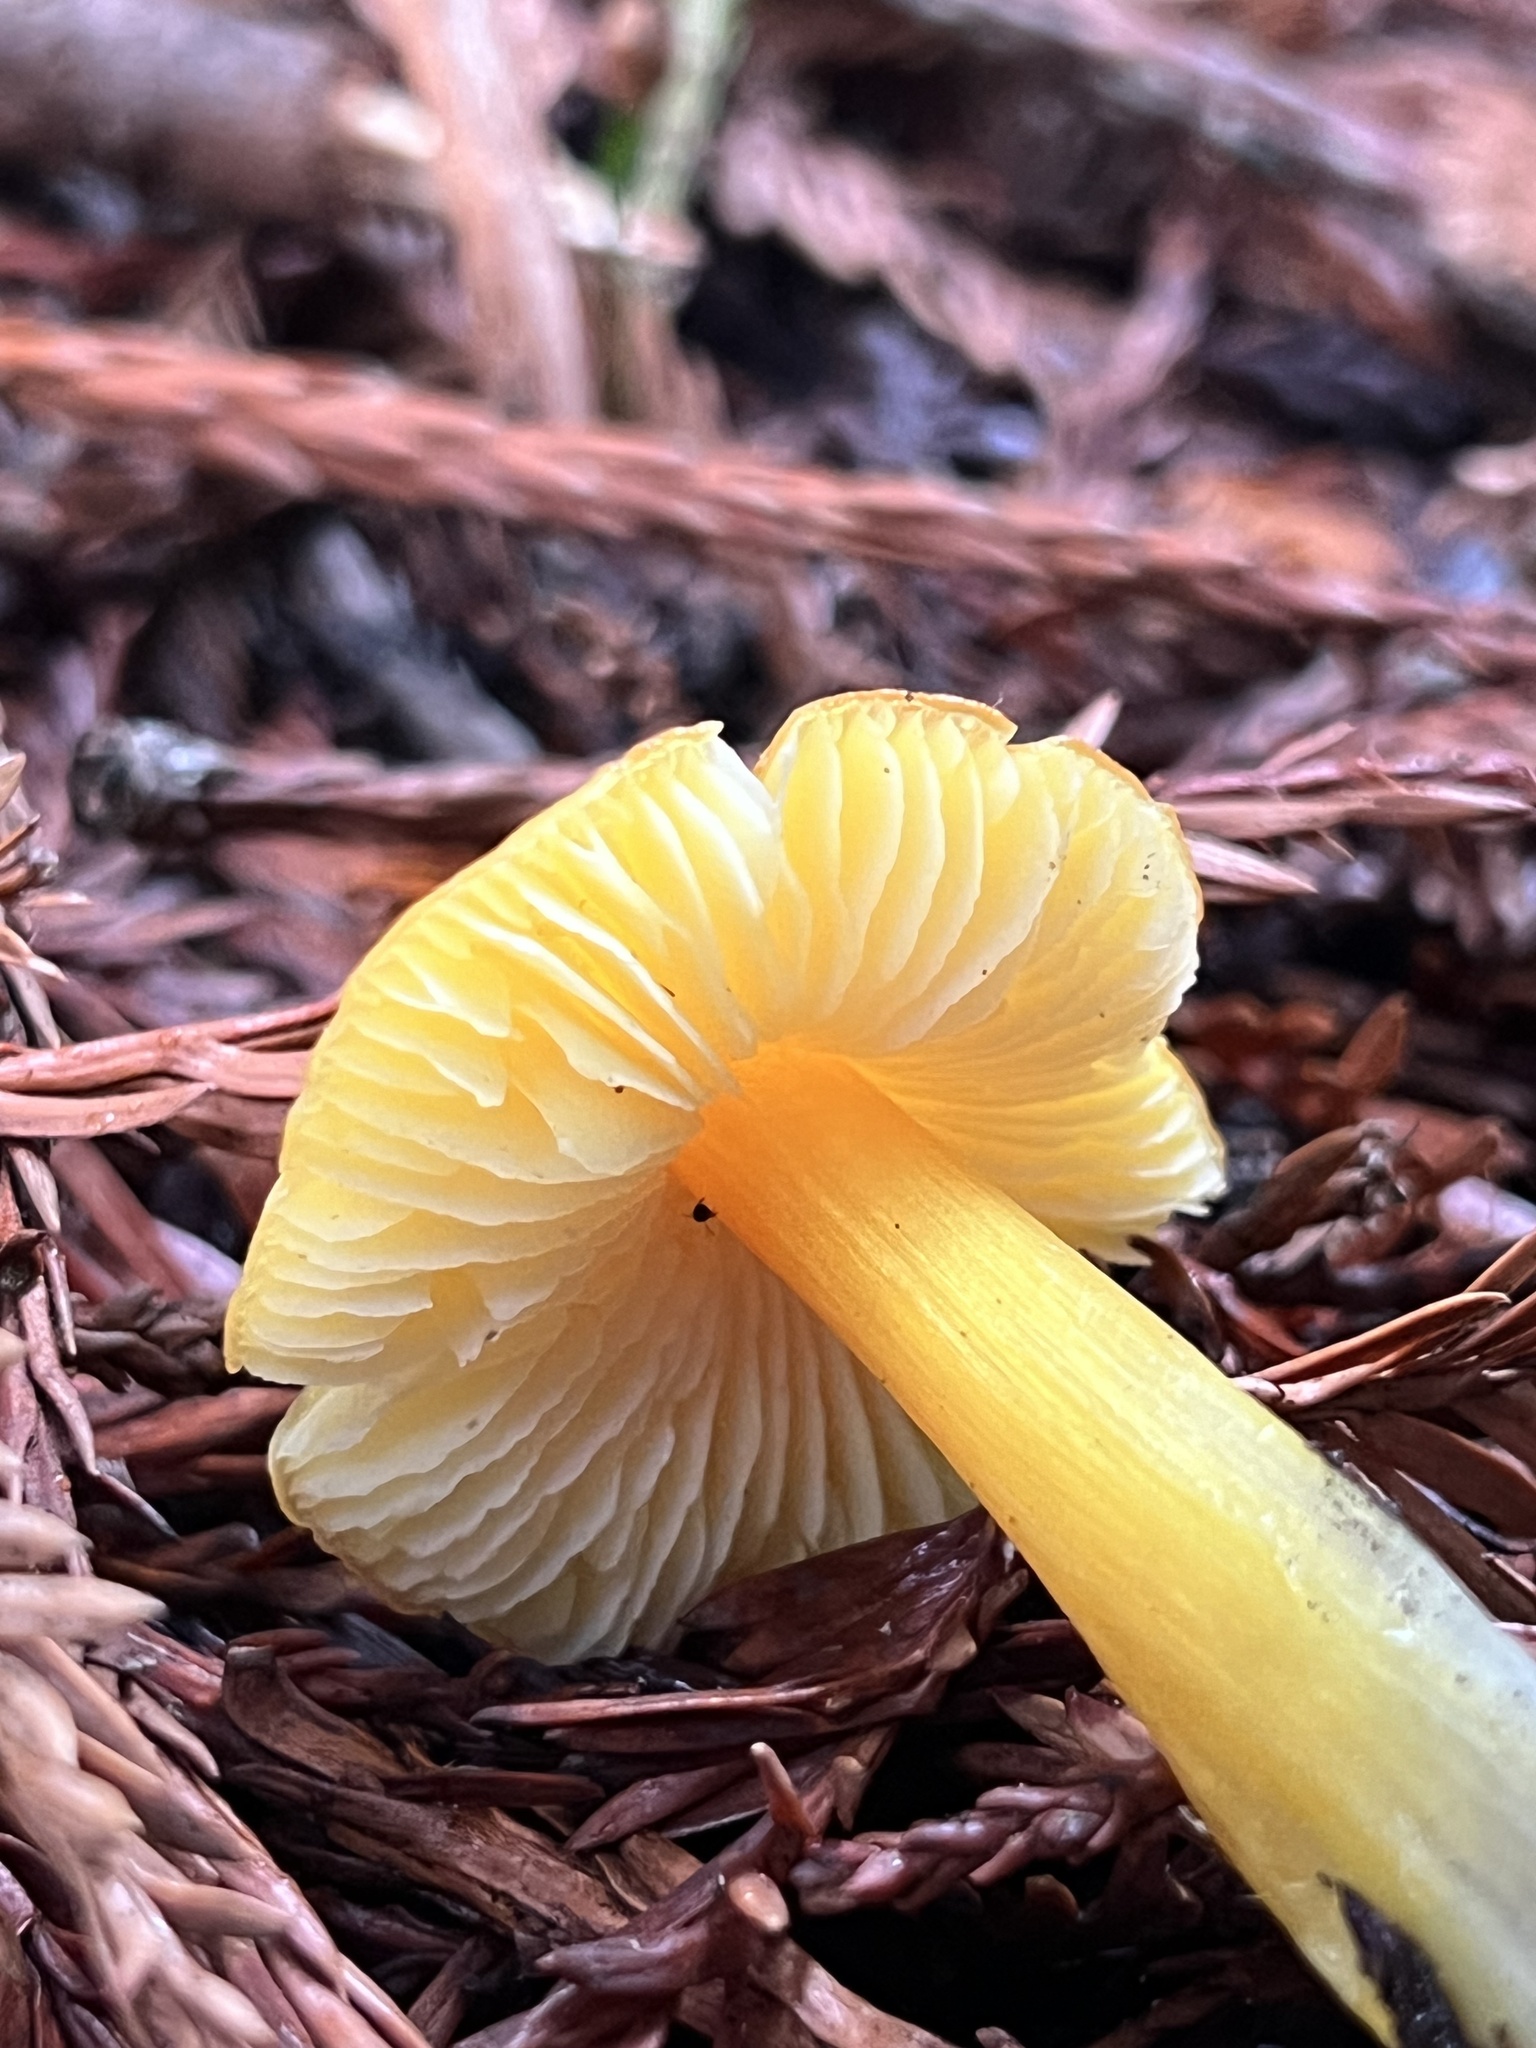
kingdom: Fungi
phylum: Basidiomycota
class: Agaricomycetes
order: Agaricales
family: Hygrophoraceae
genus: Hygrocybe
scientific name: Hygrocybe singeri
